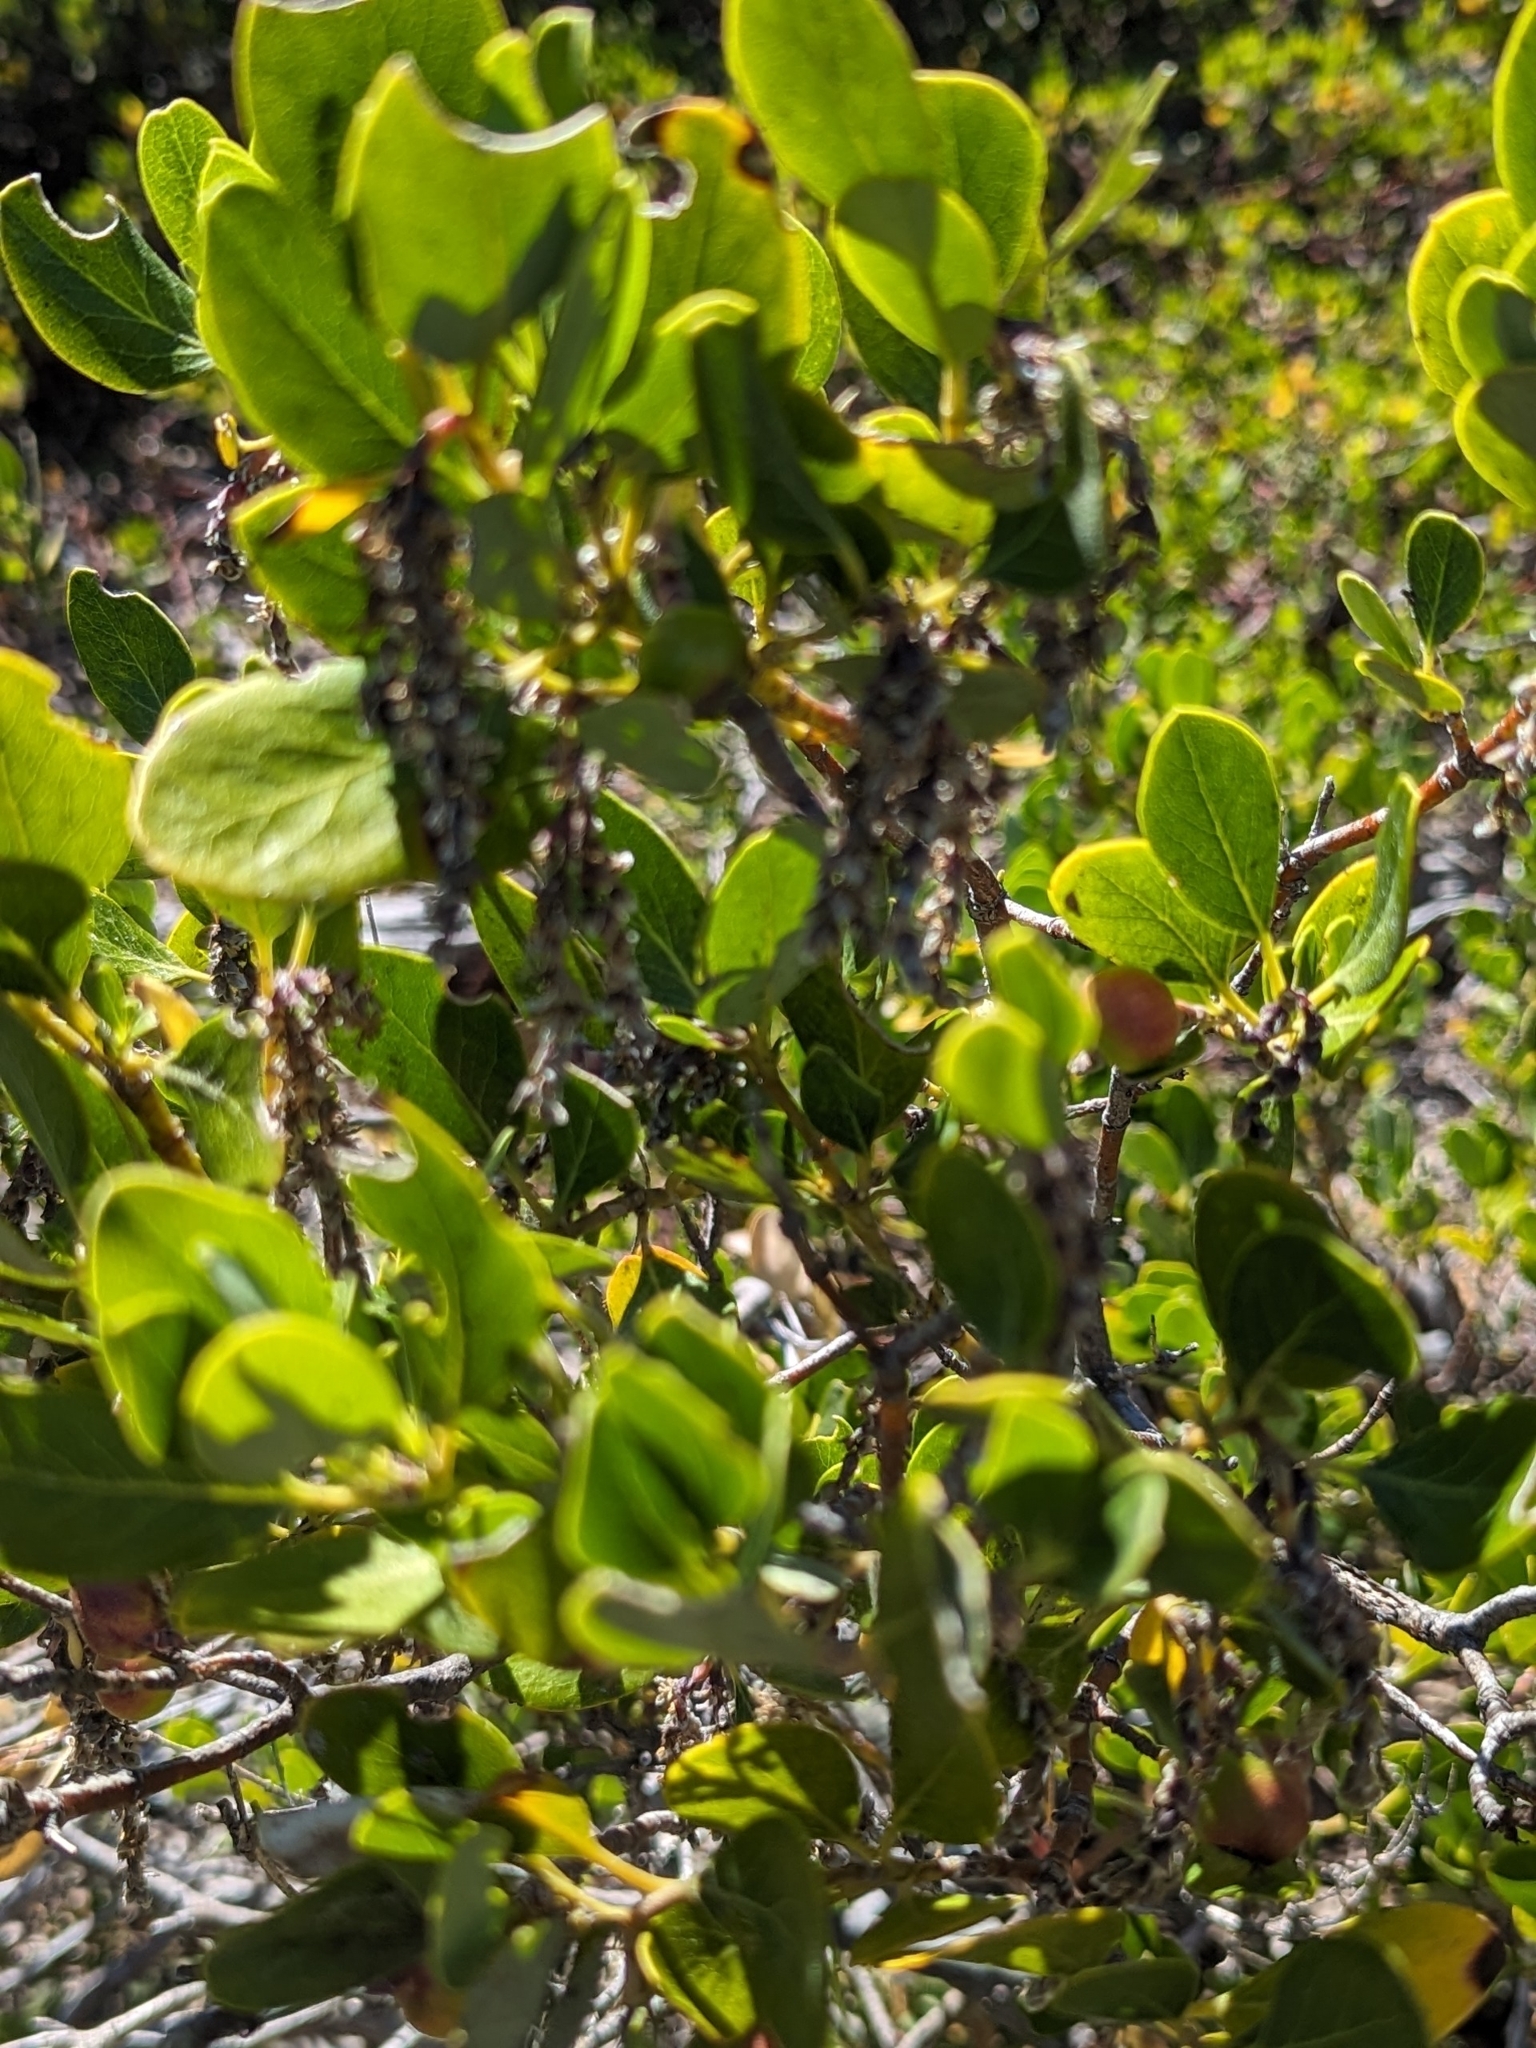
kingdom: Plantae
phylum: Tracheophyta
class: Magnoliopsida
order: Garryales
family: Garryaceae
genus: Garrya
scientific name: Garrya fremontii
